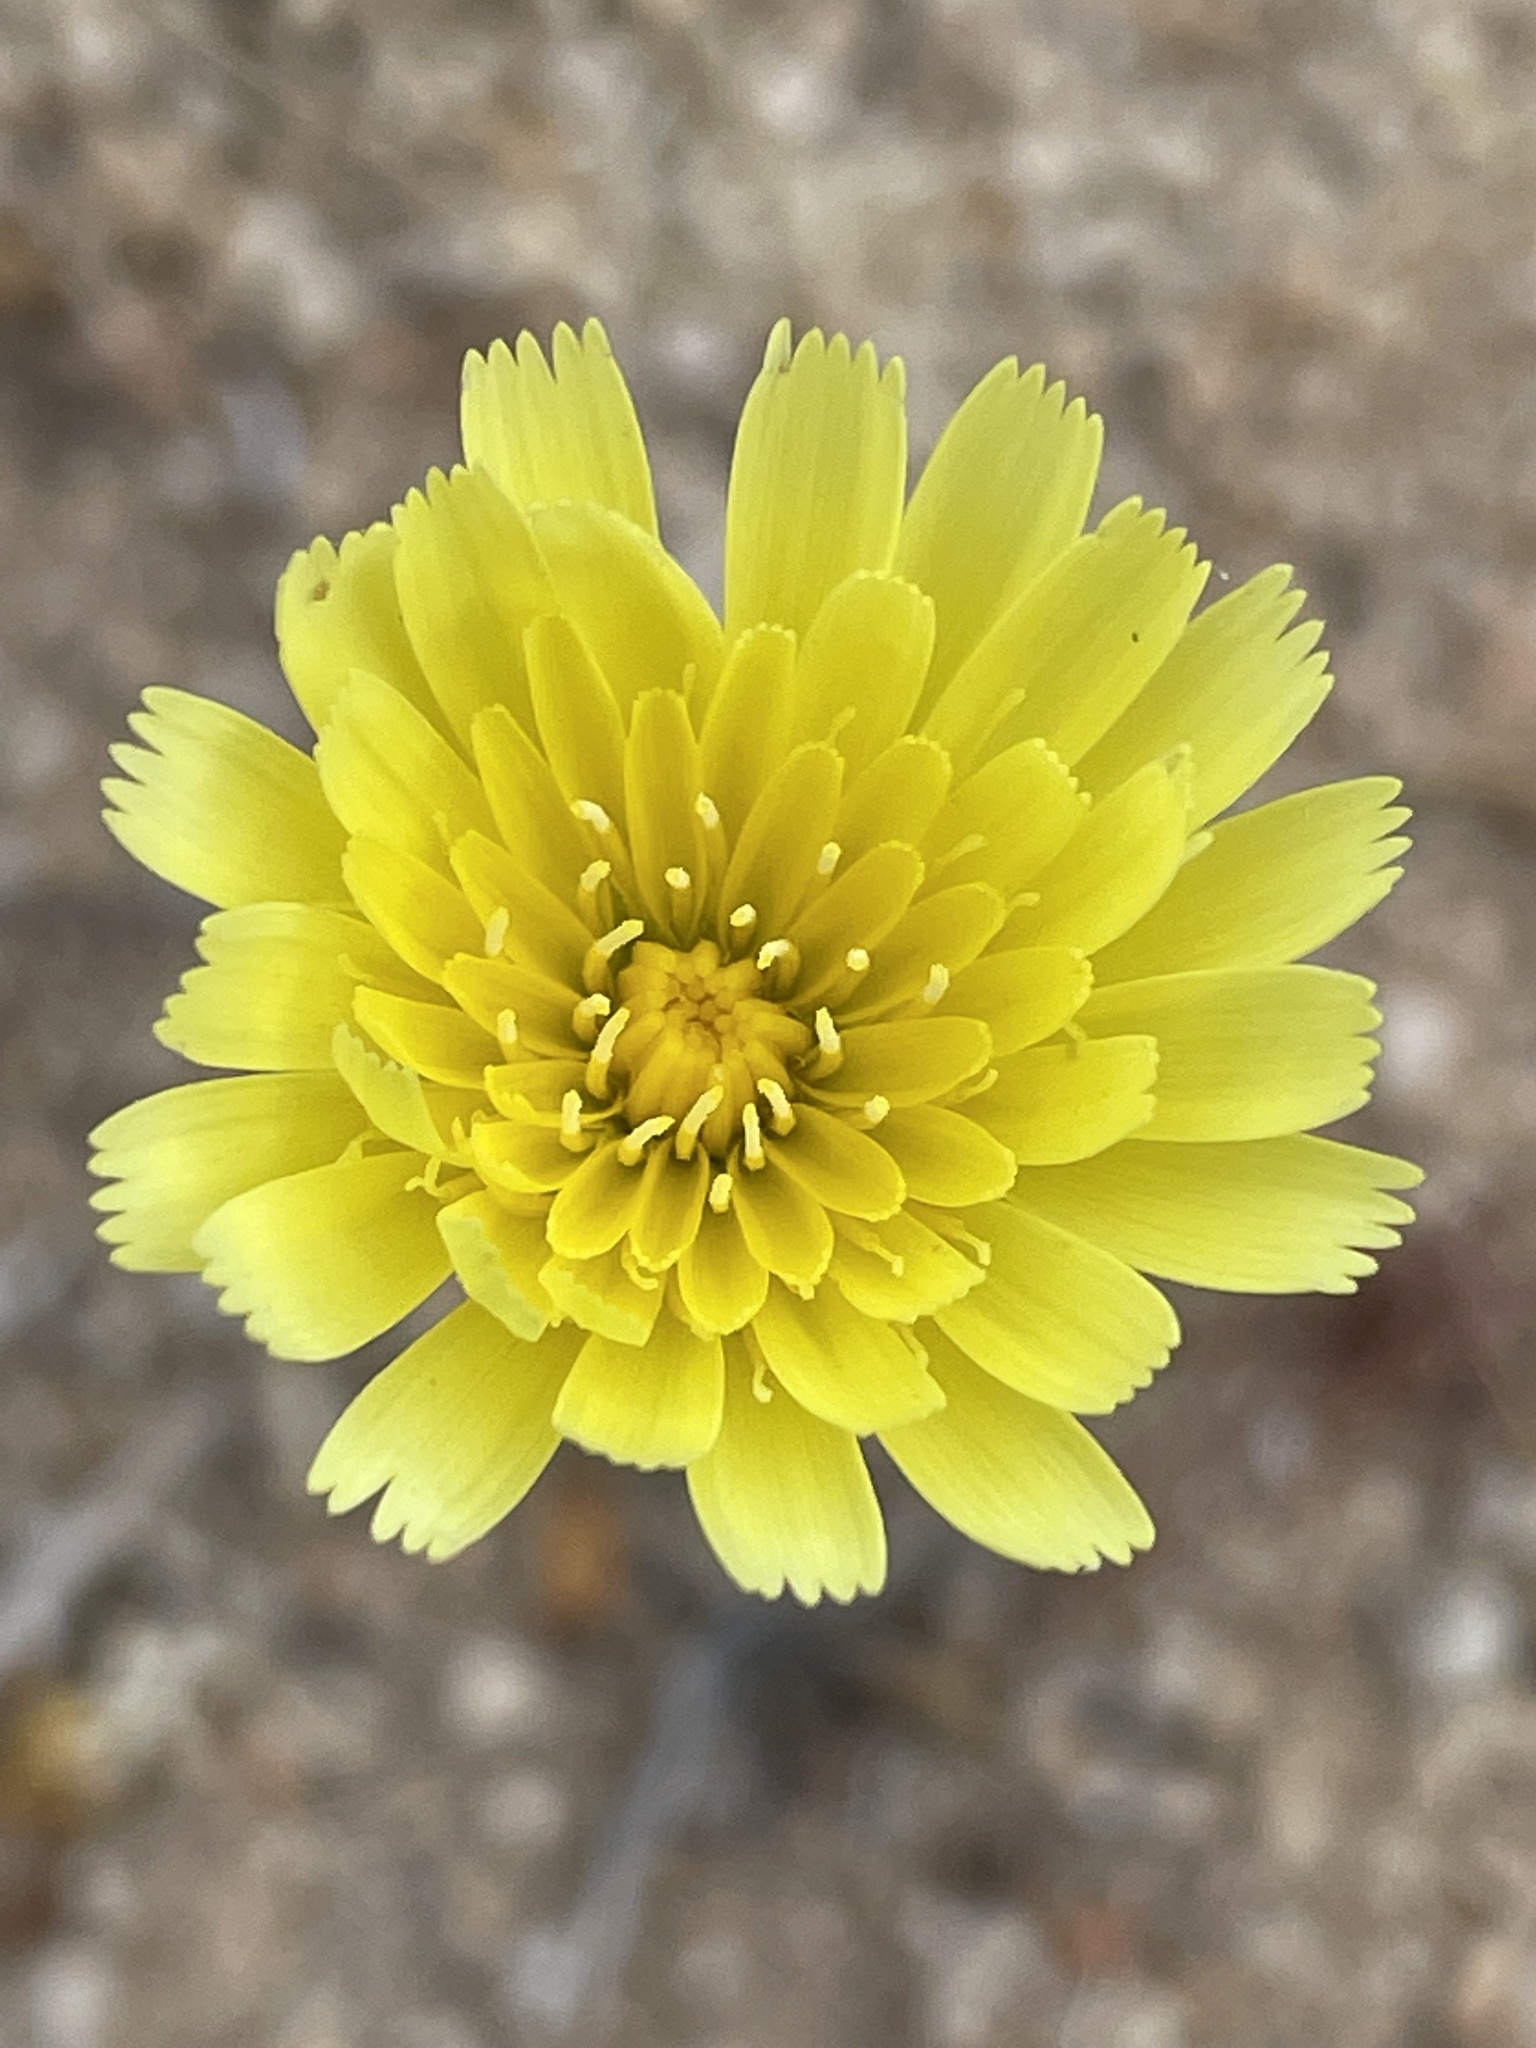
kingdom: Plantae
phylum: Tracheophyta
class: Magnoliopsida
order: Asterales
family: Asteraceae
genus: Malacothrix
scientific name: Malacothrix glabrata
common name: Smooth desert-dandelion
